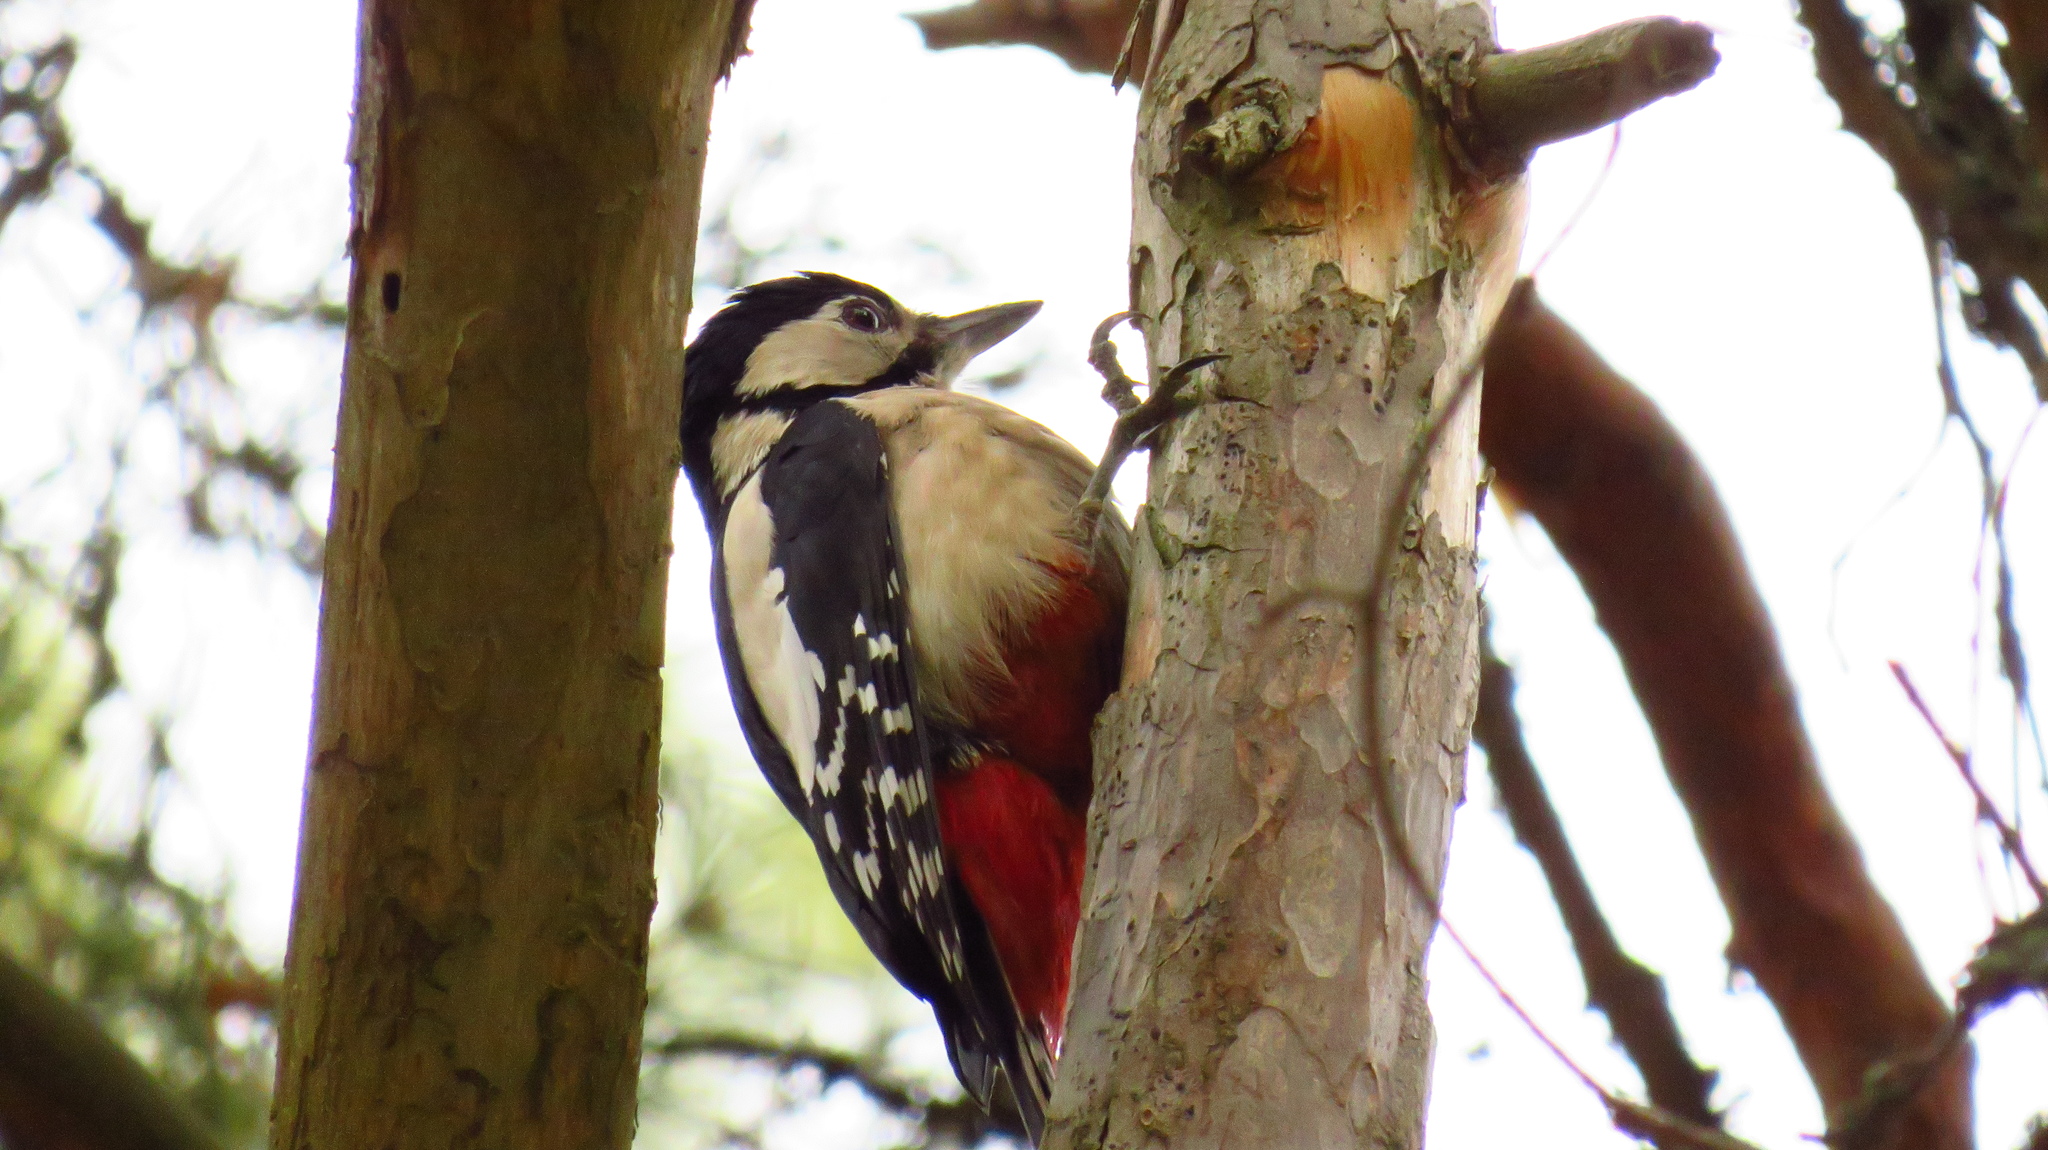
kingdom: Animalia
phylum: Chordata
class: Aves
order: Piciformes
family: Picidae
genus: Dendrocopos
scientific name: Dendrocopos major
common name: Great spotted woodpecker
